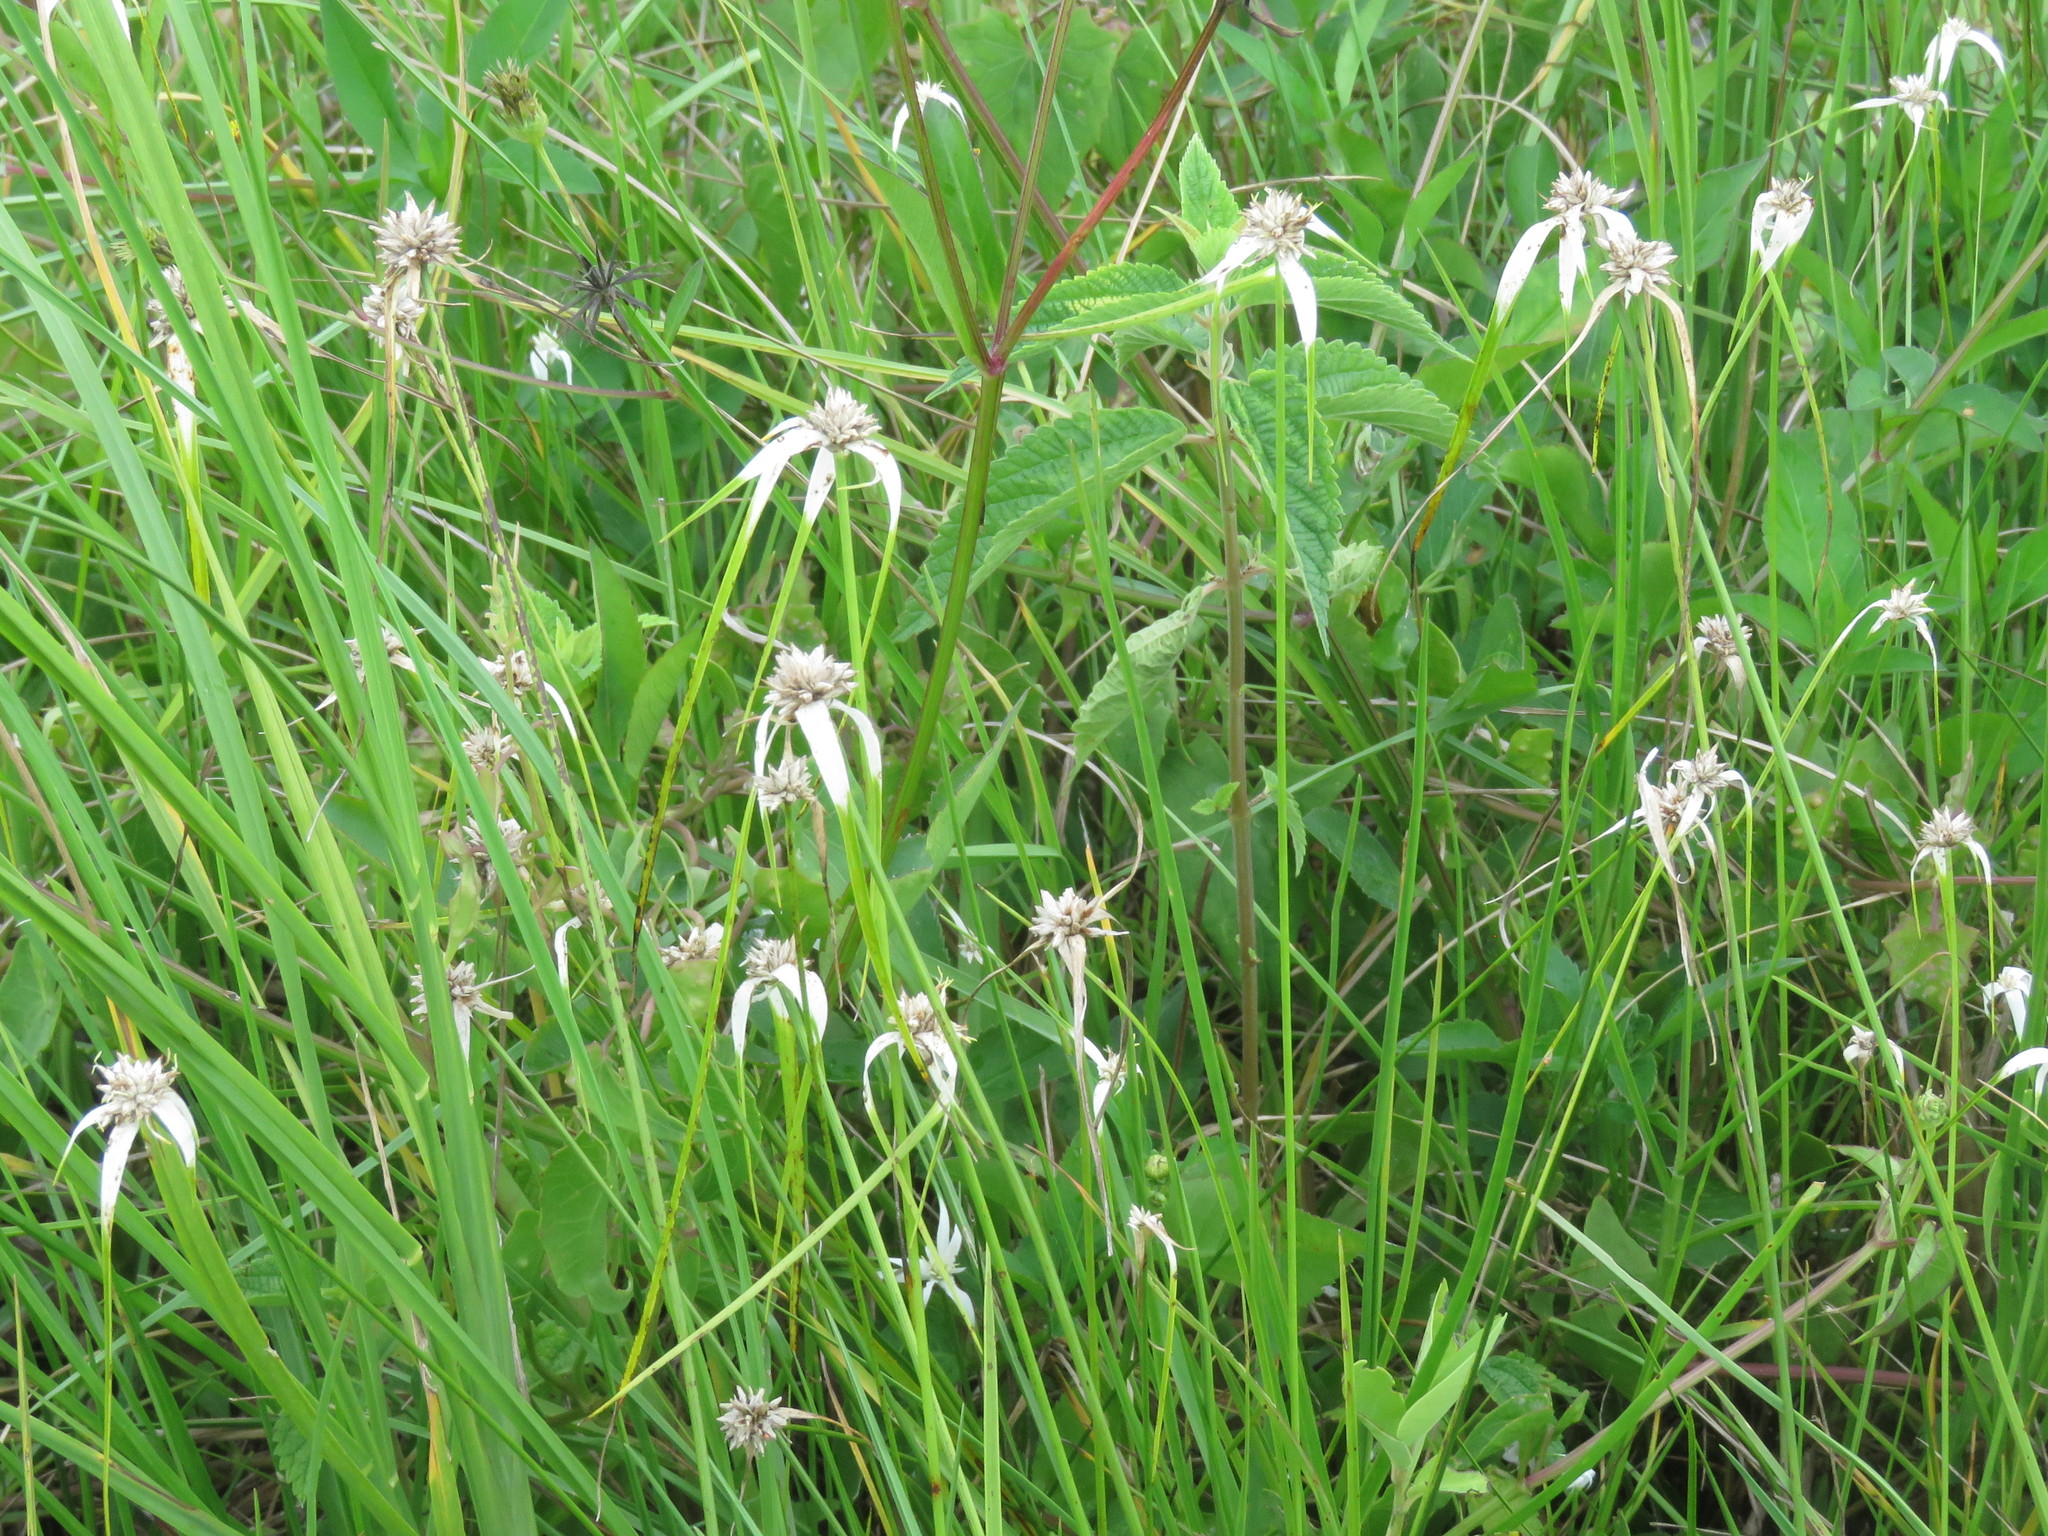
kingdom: Plantae
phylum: Tracheophyta
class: Liliopsida
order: Poales
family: Cyperaceae
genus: Rhynchospora
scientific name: Rhynchospora colorata
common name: Star sedge
